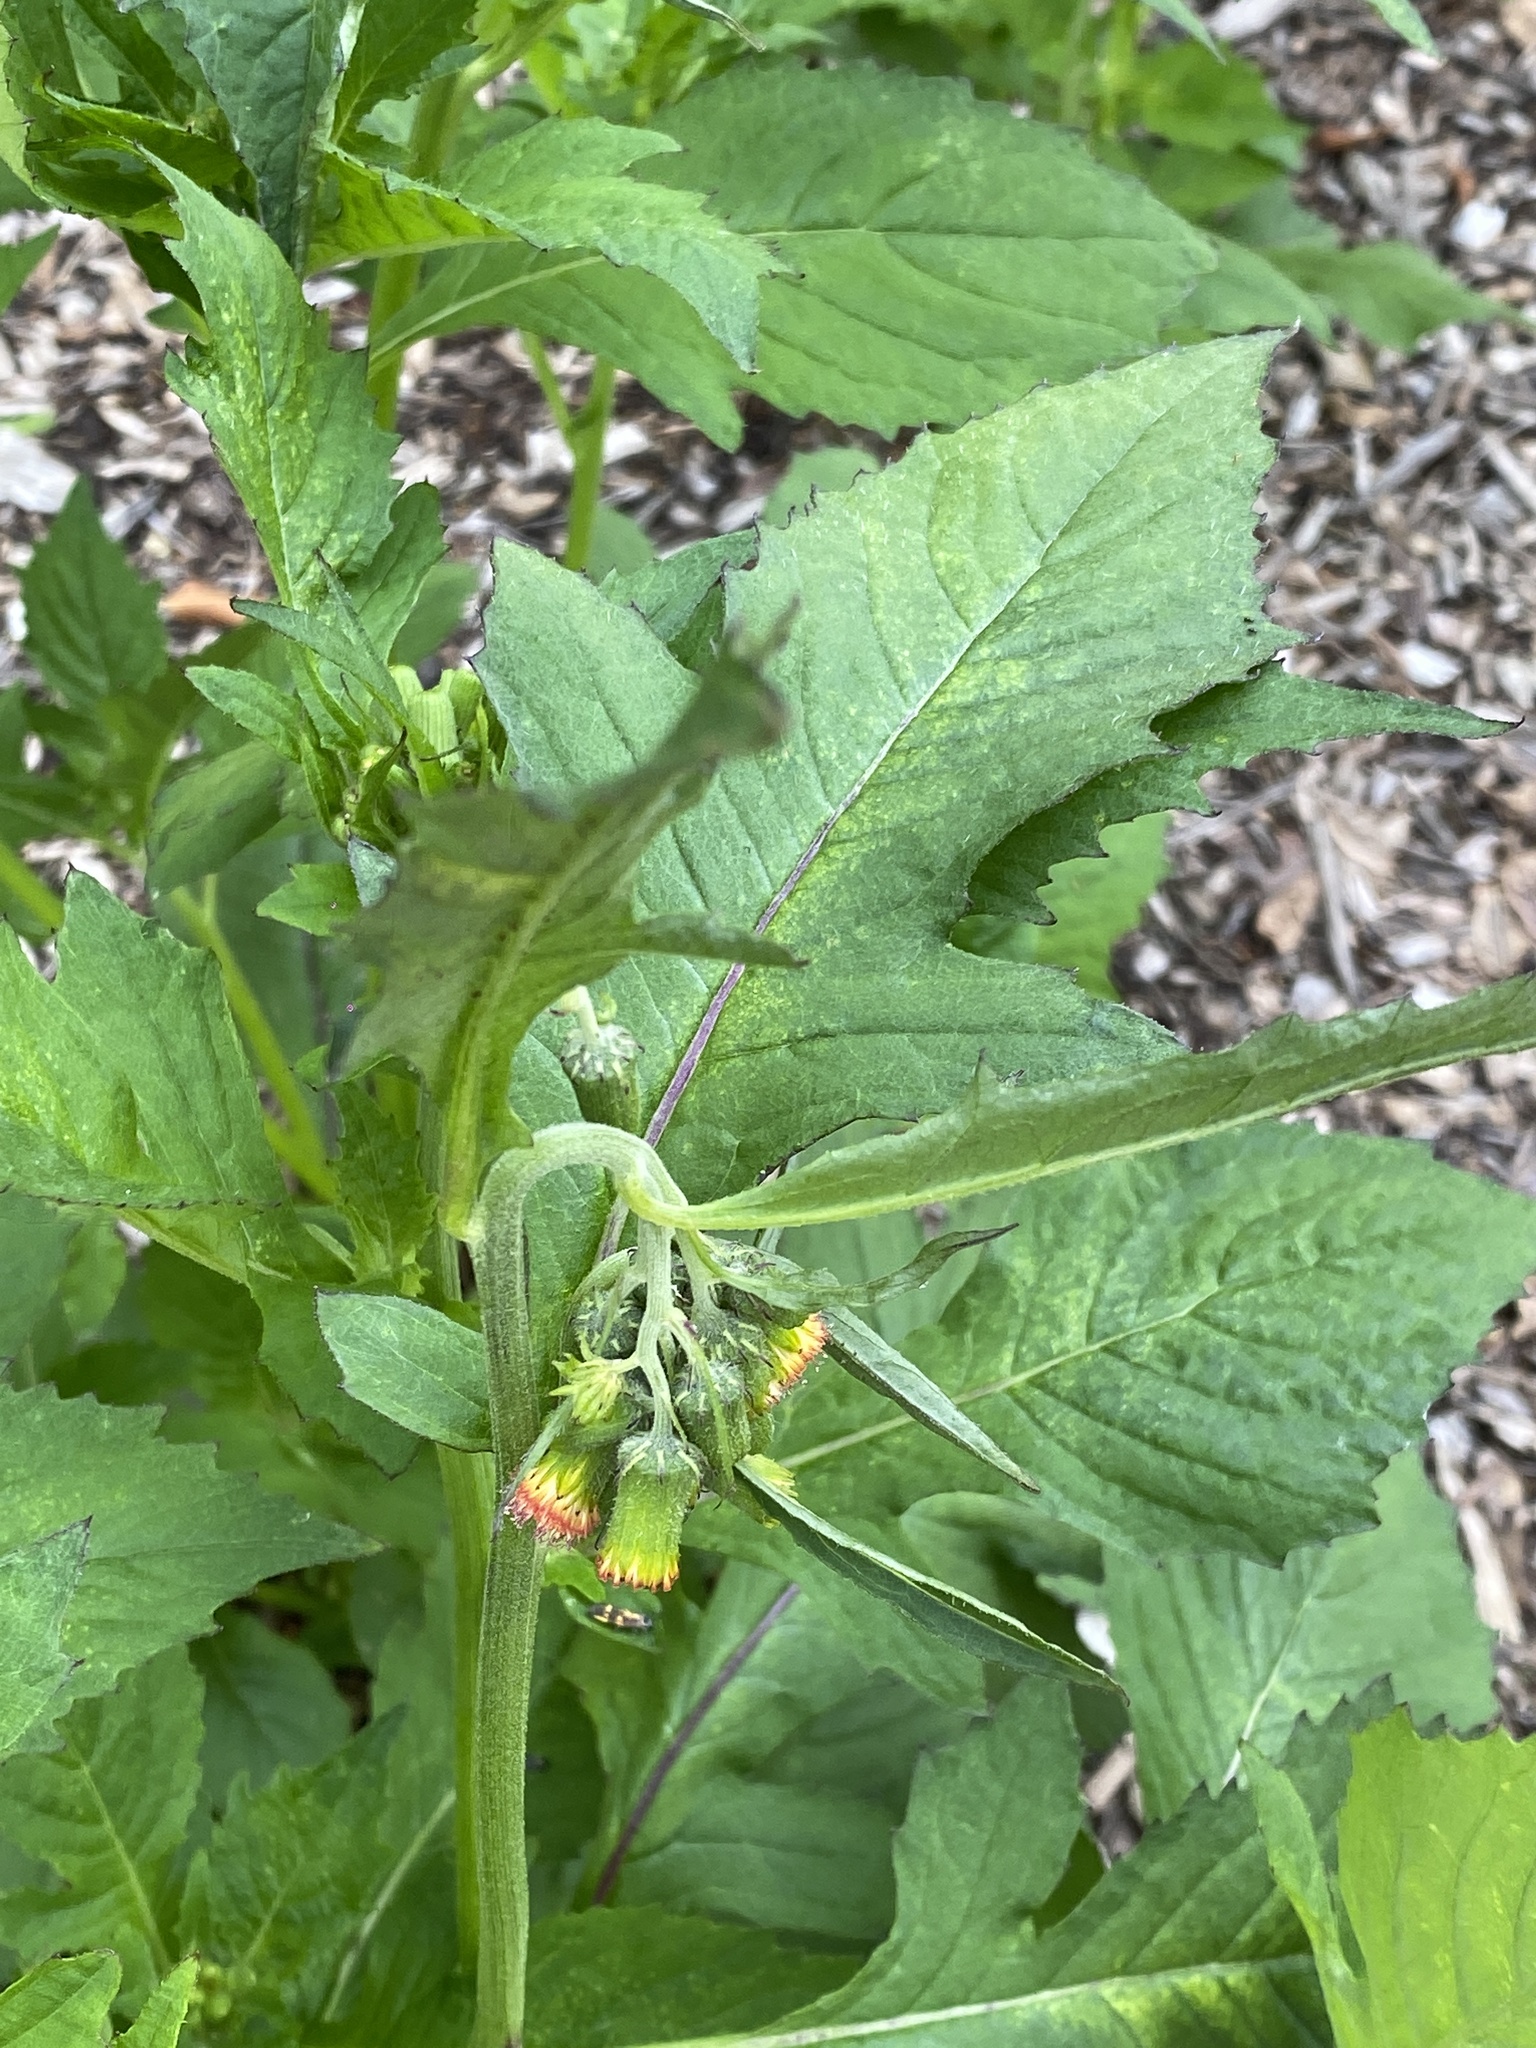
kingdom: Plantae
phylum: Tracheophyta
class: Magnoliopsida
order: Asterales
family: Asteraceae
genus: Crassocephalum
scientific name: Crassocephalum crepidioides
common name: Redflower ragleaf
